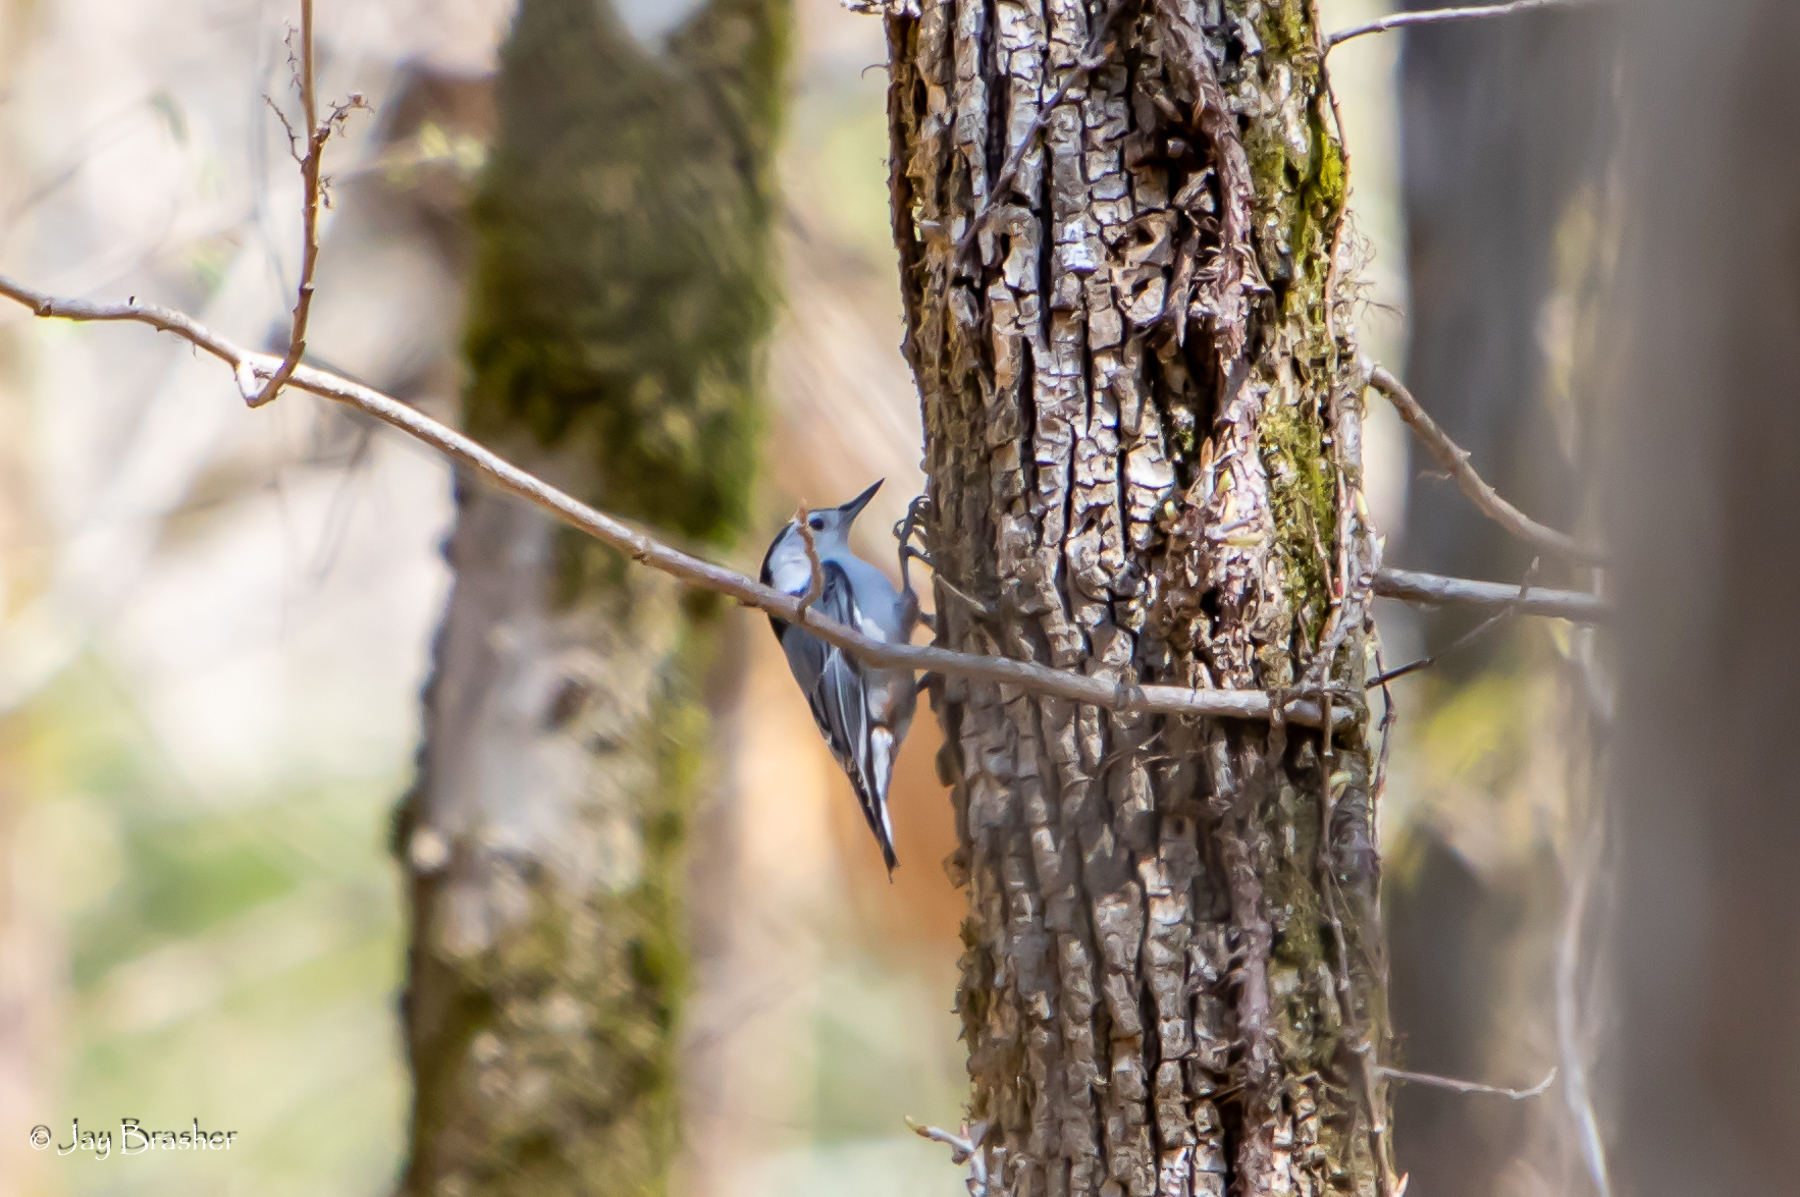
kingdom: Animalia
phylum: Chordata
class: Aves
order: Passeriformes
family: Sittidae
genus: Sitta
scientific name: Sitta carolinensis
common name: White-breasted nuthatch
